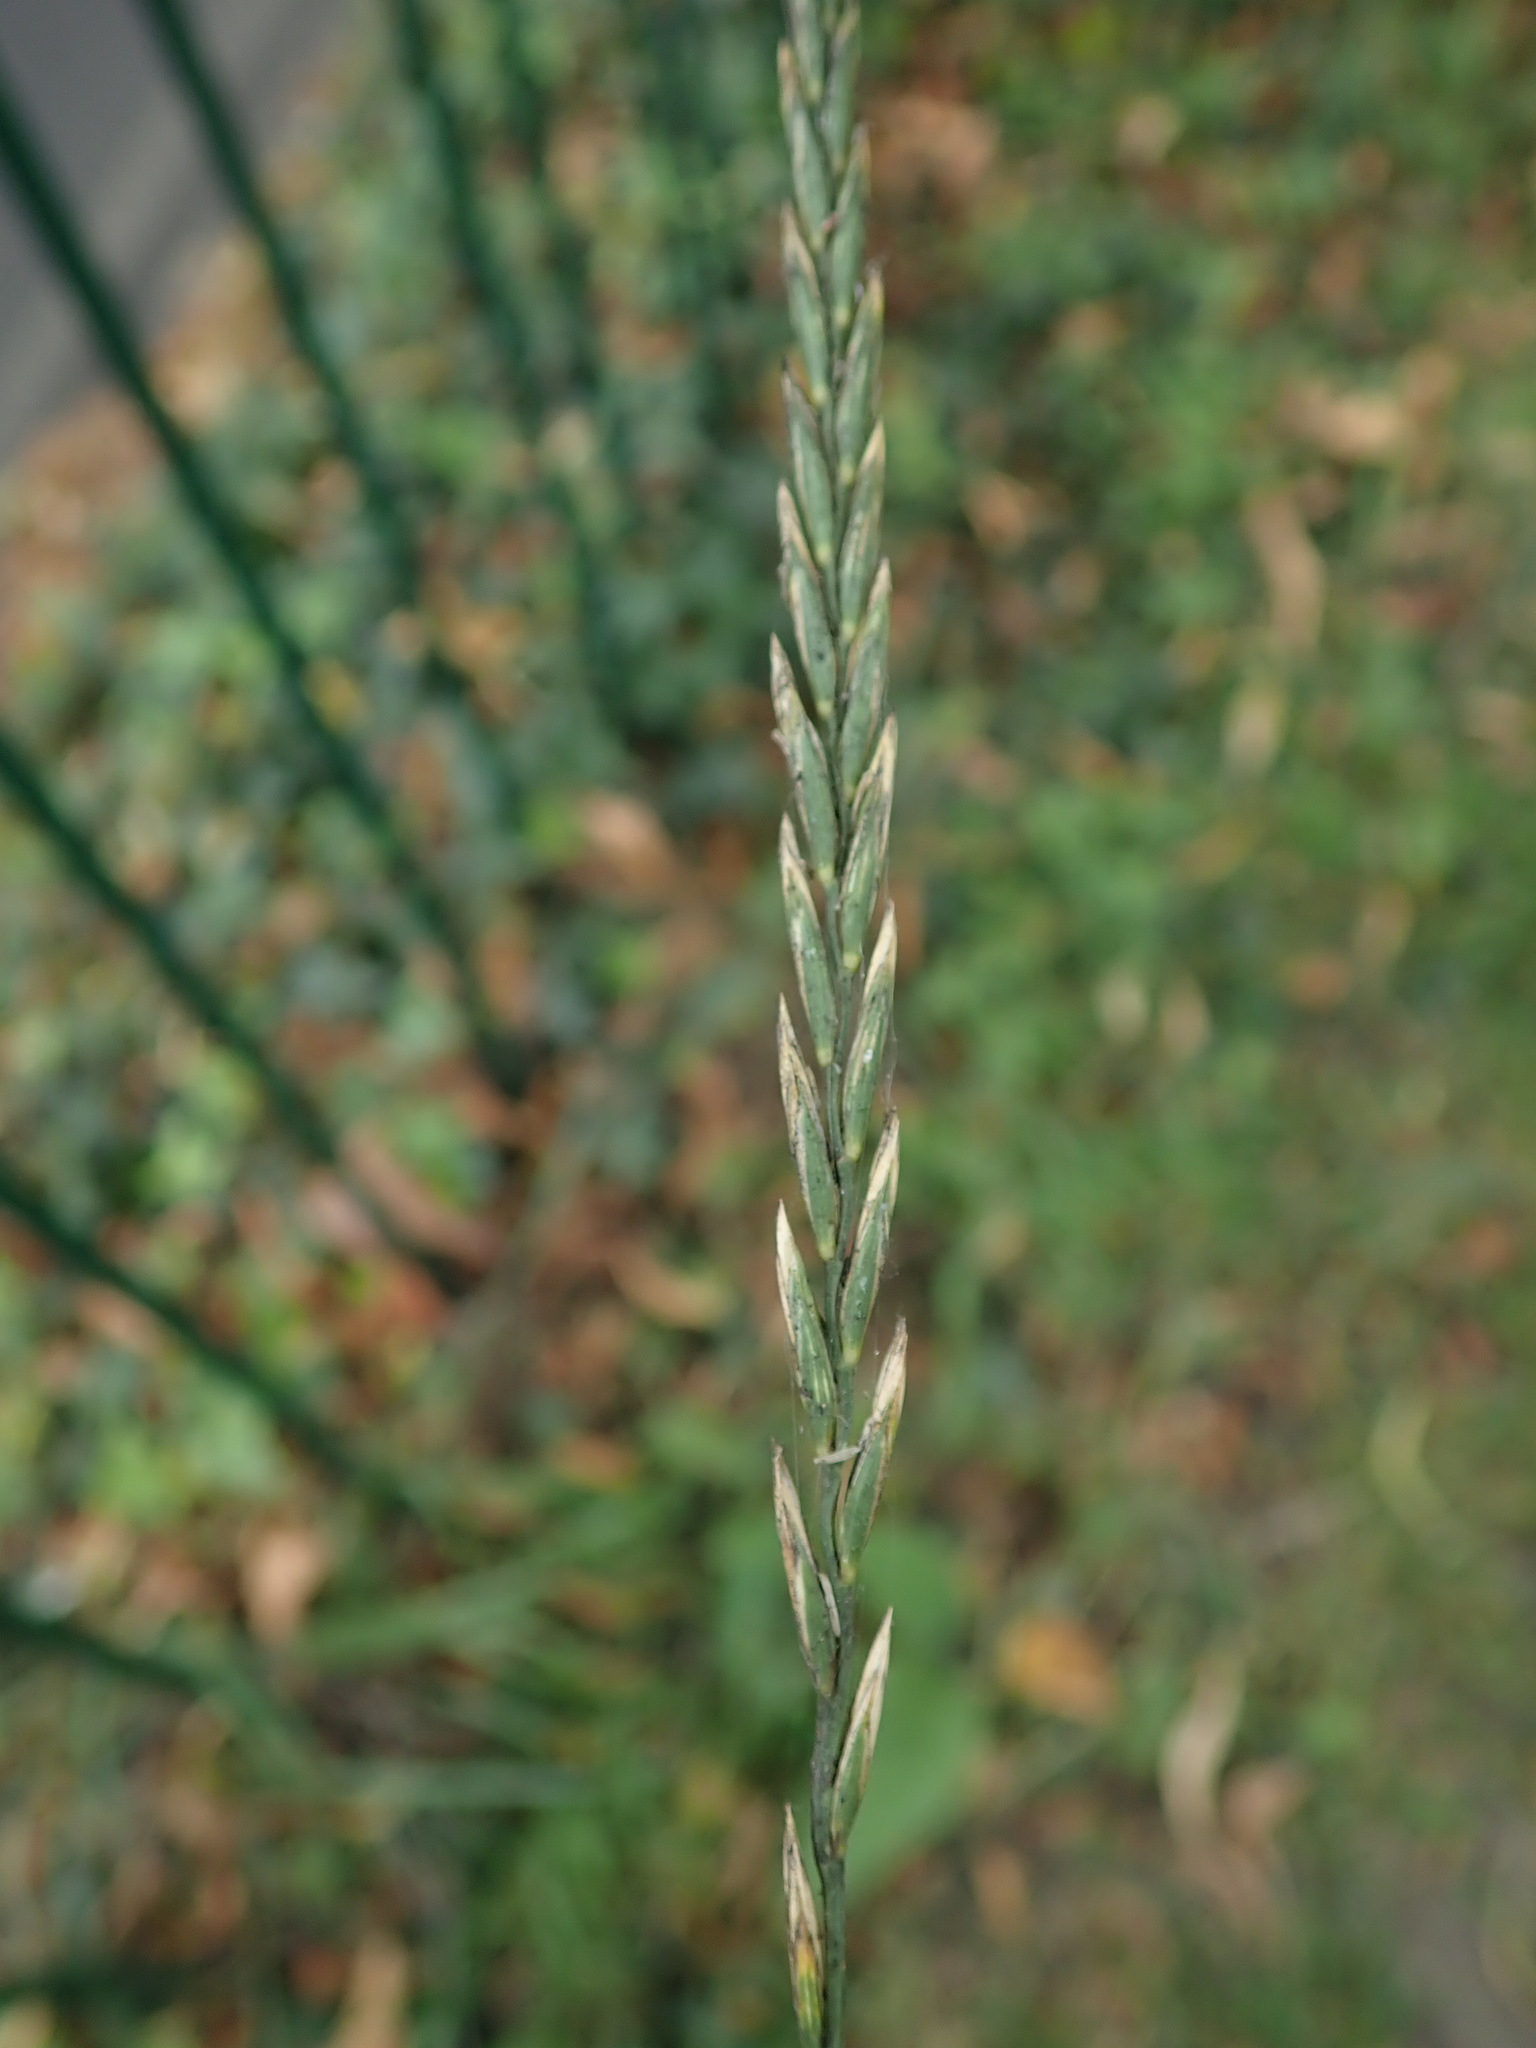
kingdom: Plantae
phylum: Tracheophyta
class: Liliopsida
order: Poales
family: Poaceae
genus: Elymus
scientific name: Elymus repens
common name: Quackgrass
